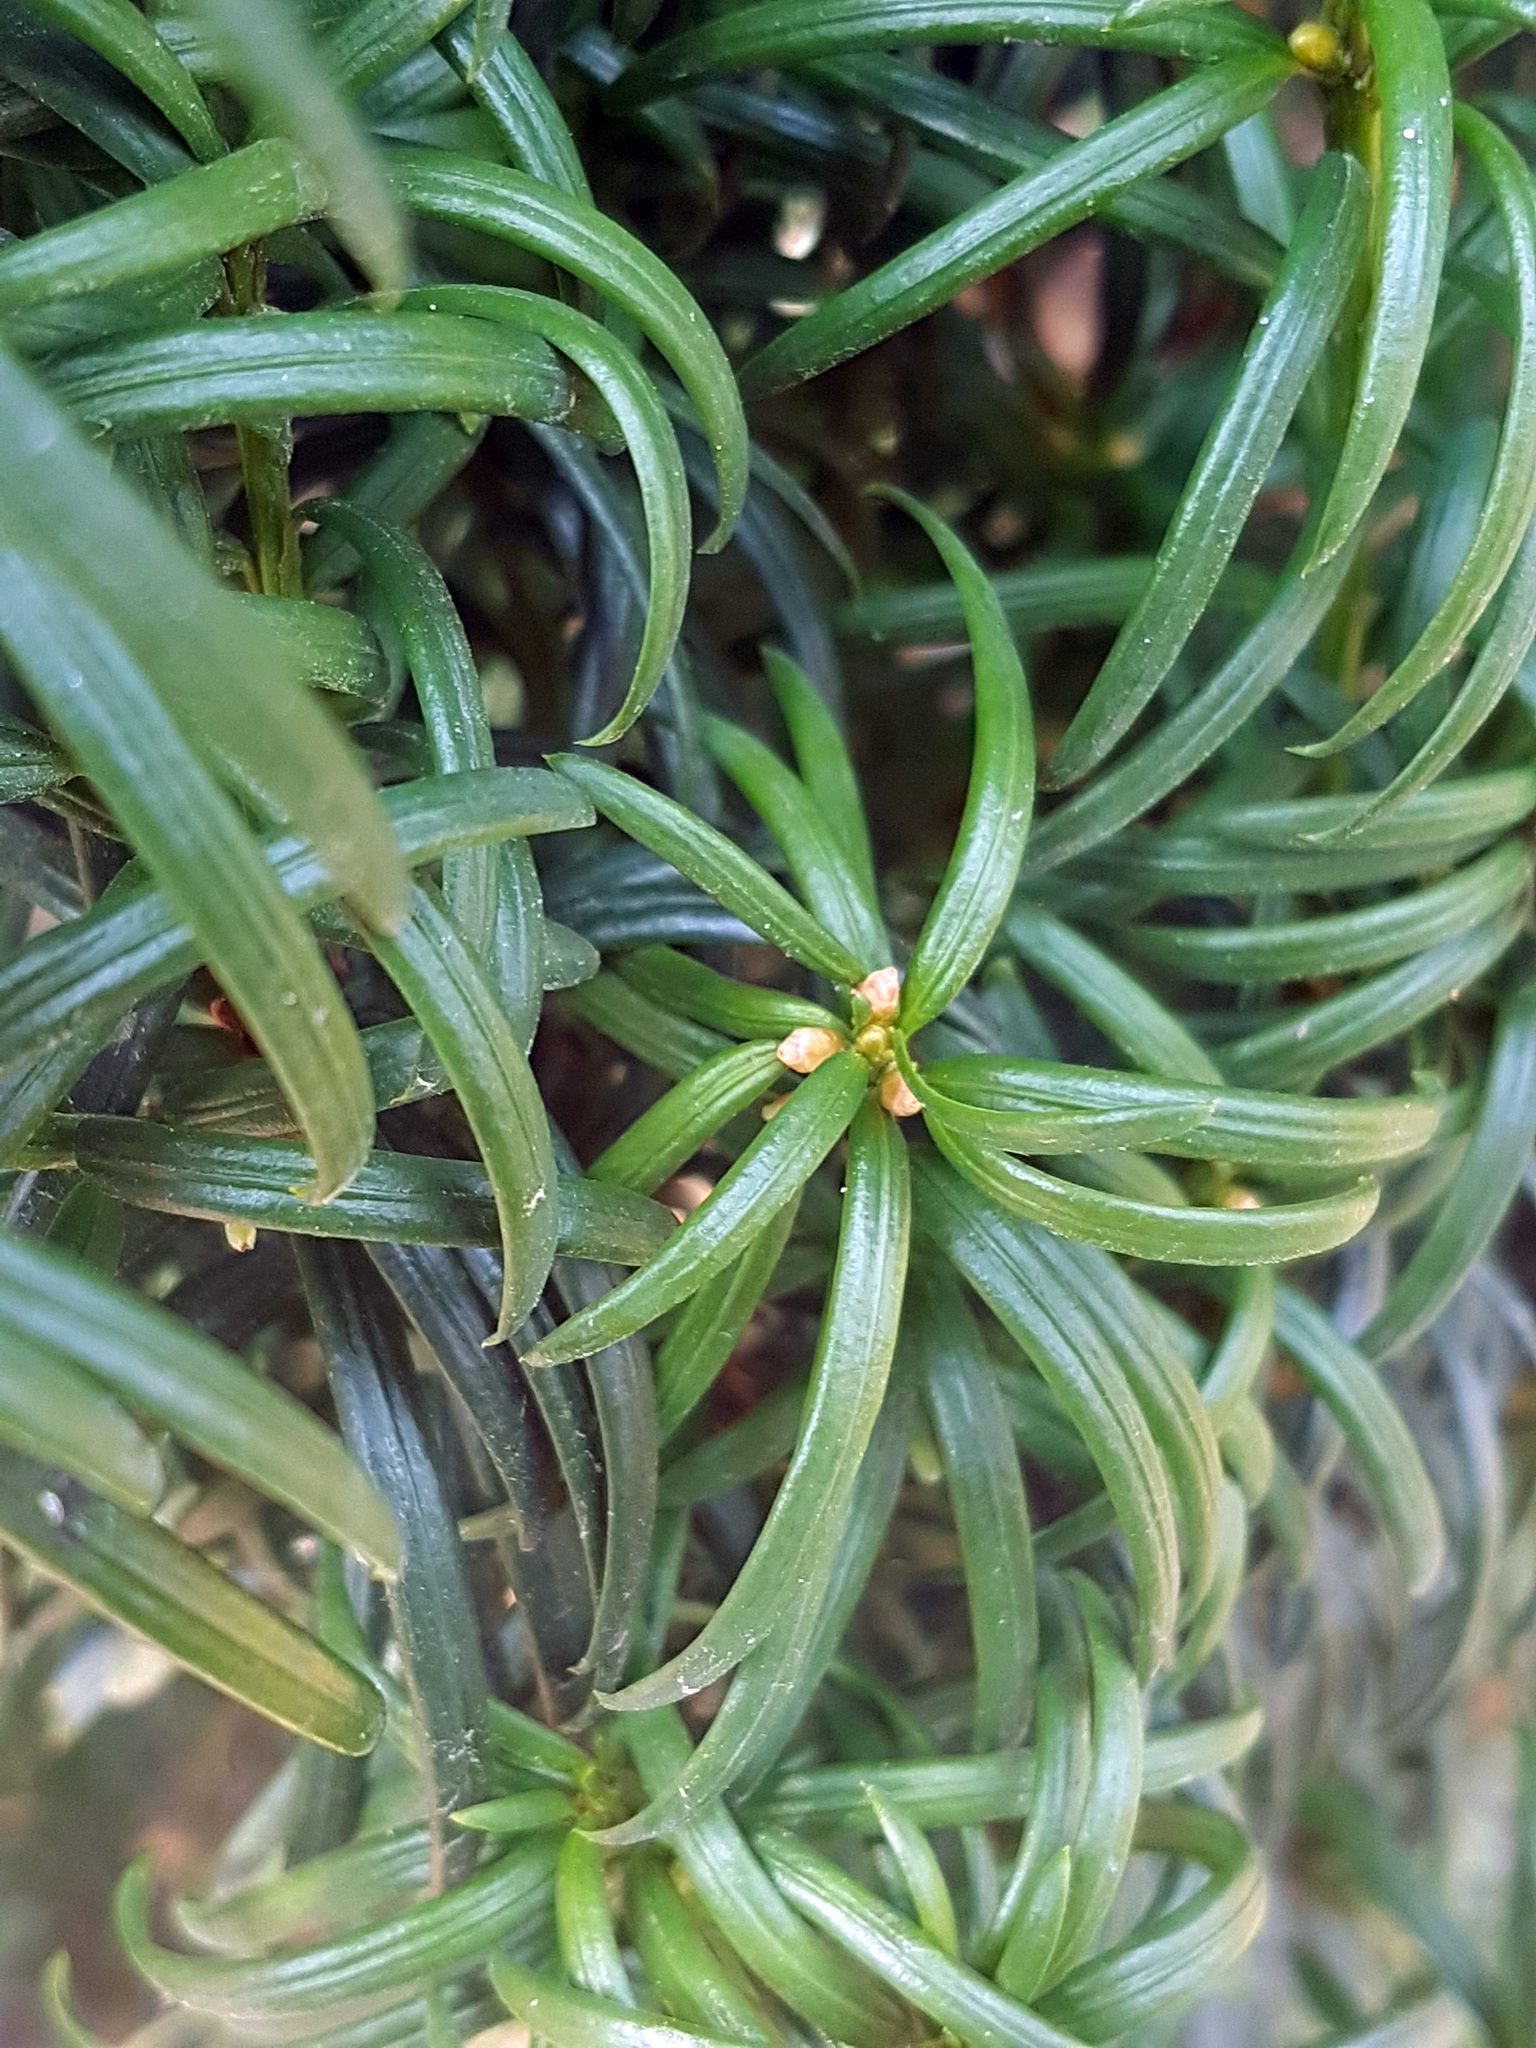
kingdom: Plantae
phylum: Tracheophyta
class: Pinopsida
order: Pinales
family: Taxaceae
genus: Taxus
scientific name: Taxus baccata
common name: Yew
